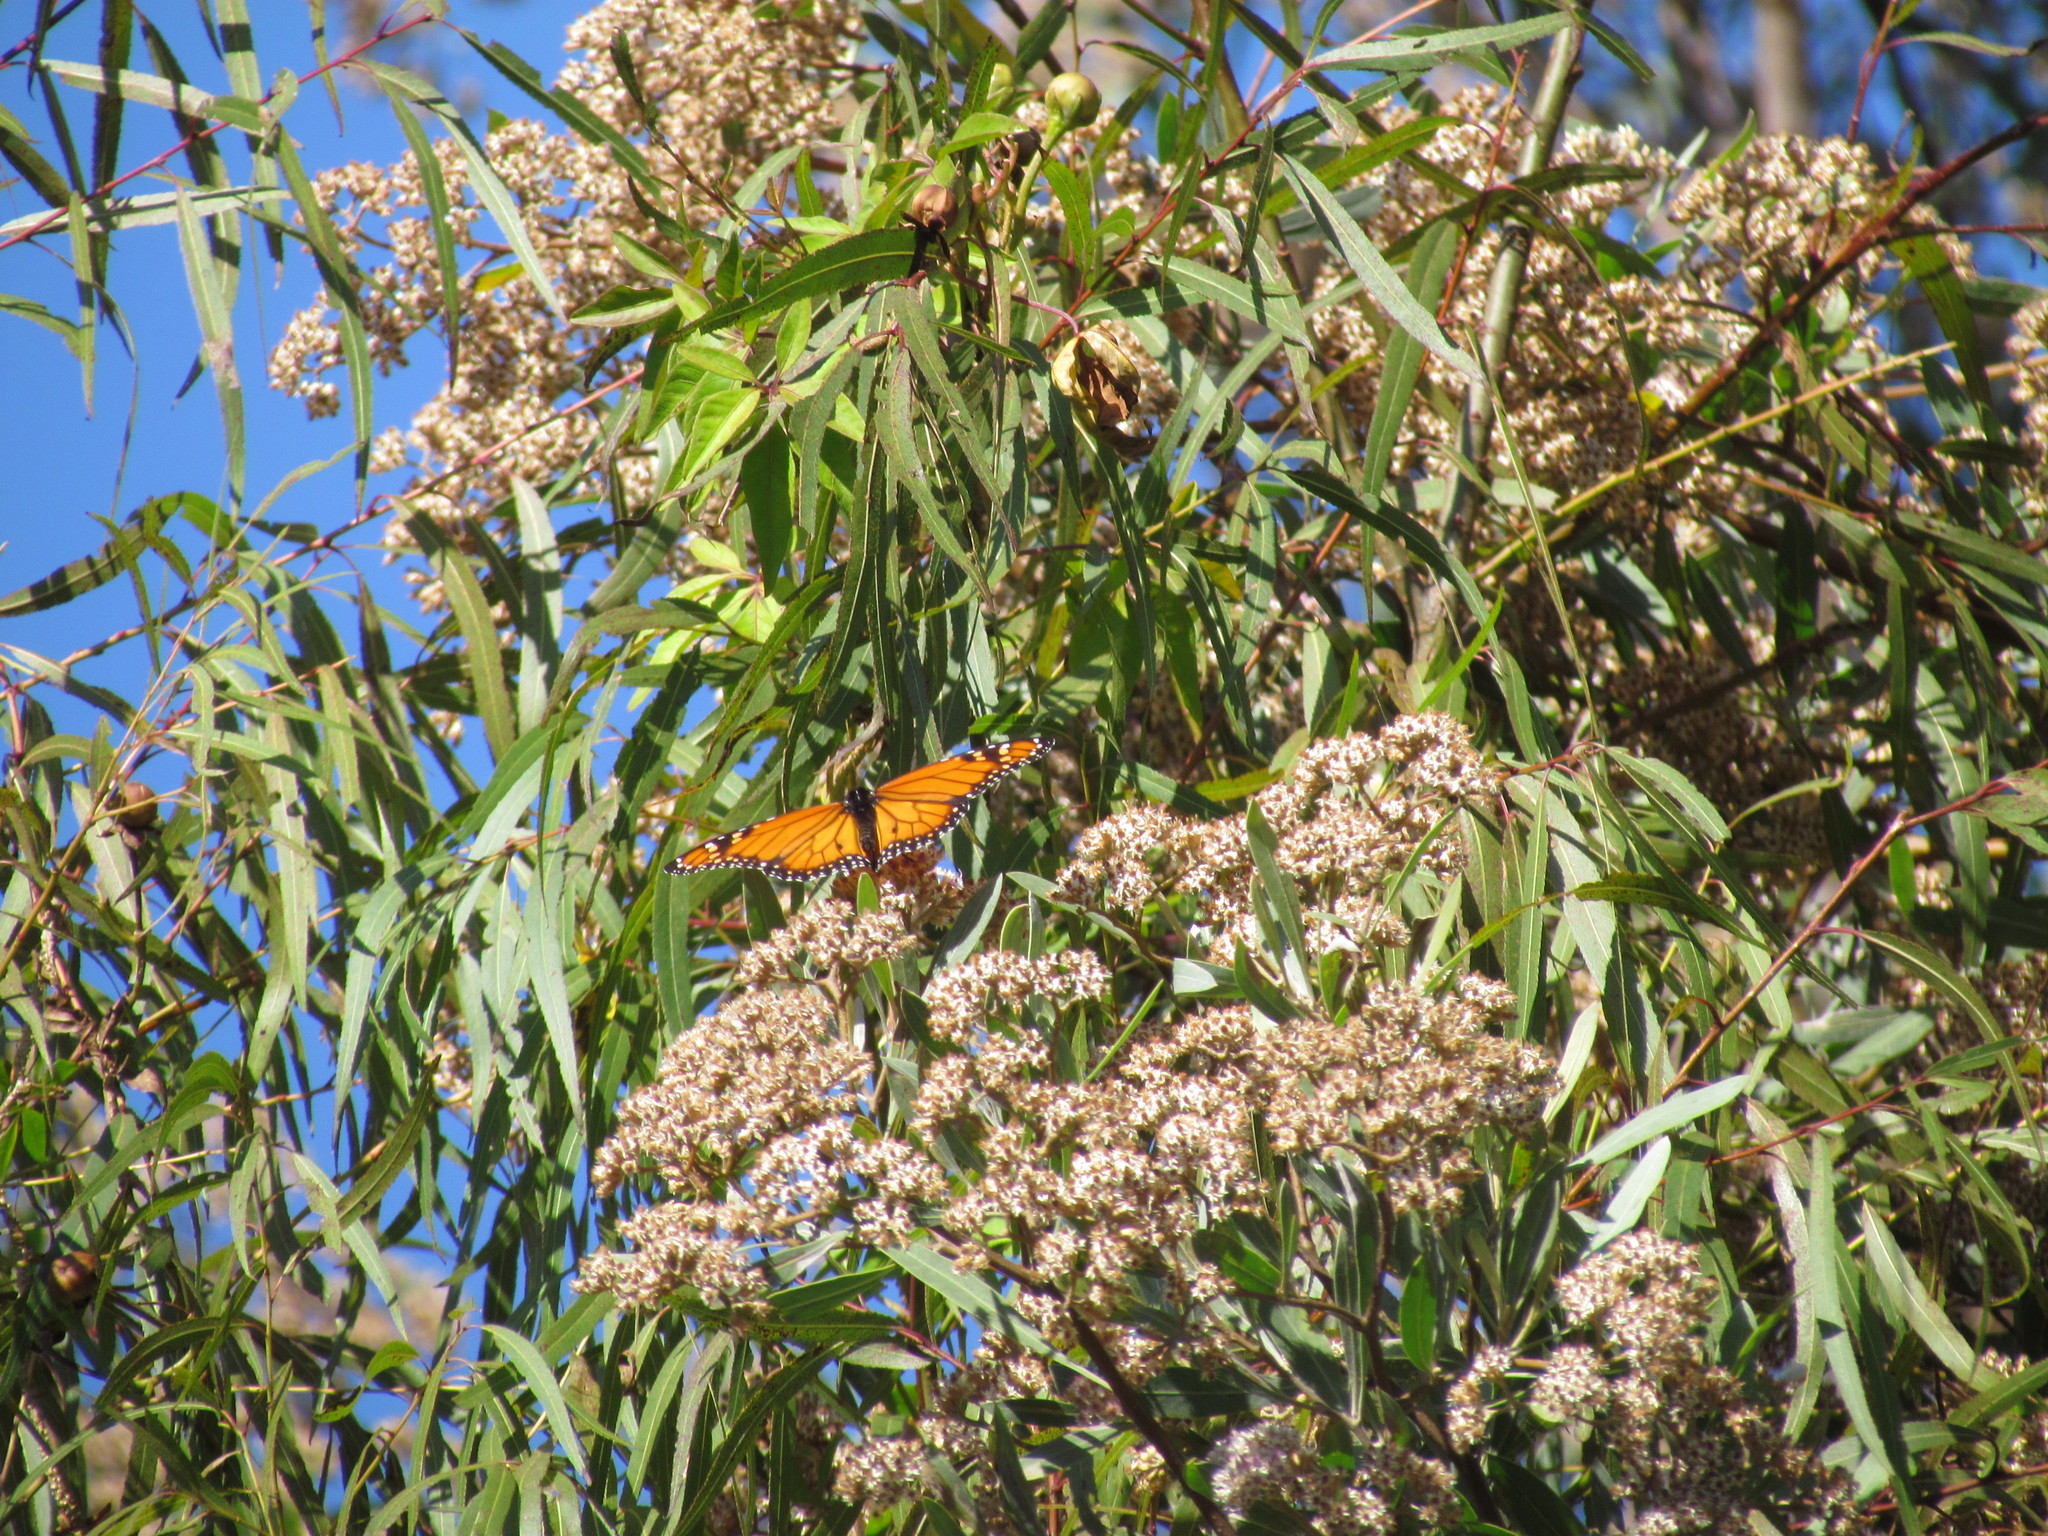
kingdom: Animalia
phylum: Arthropoda
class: Insecta
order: Lepidoptera
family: Nymphalidae
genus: Danaus
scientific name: Danaus erippus
